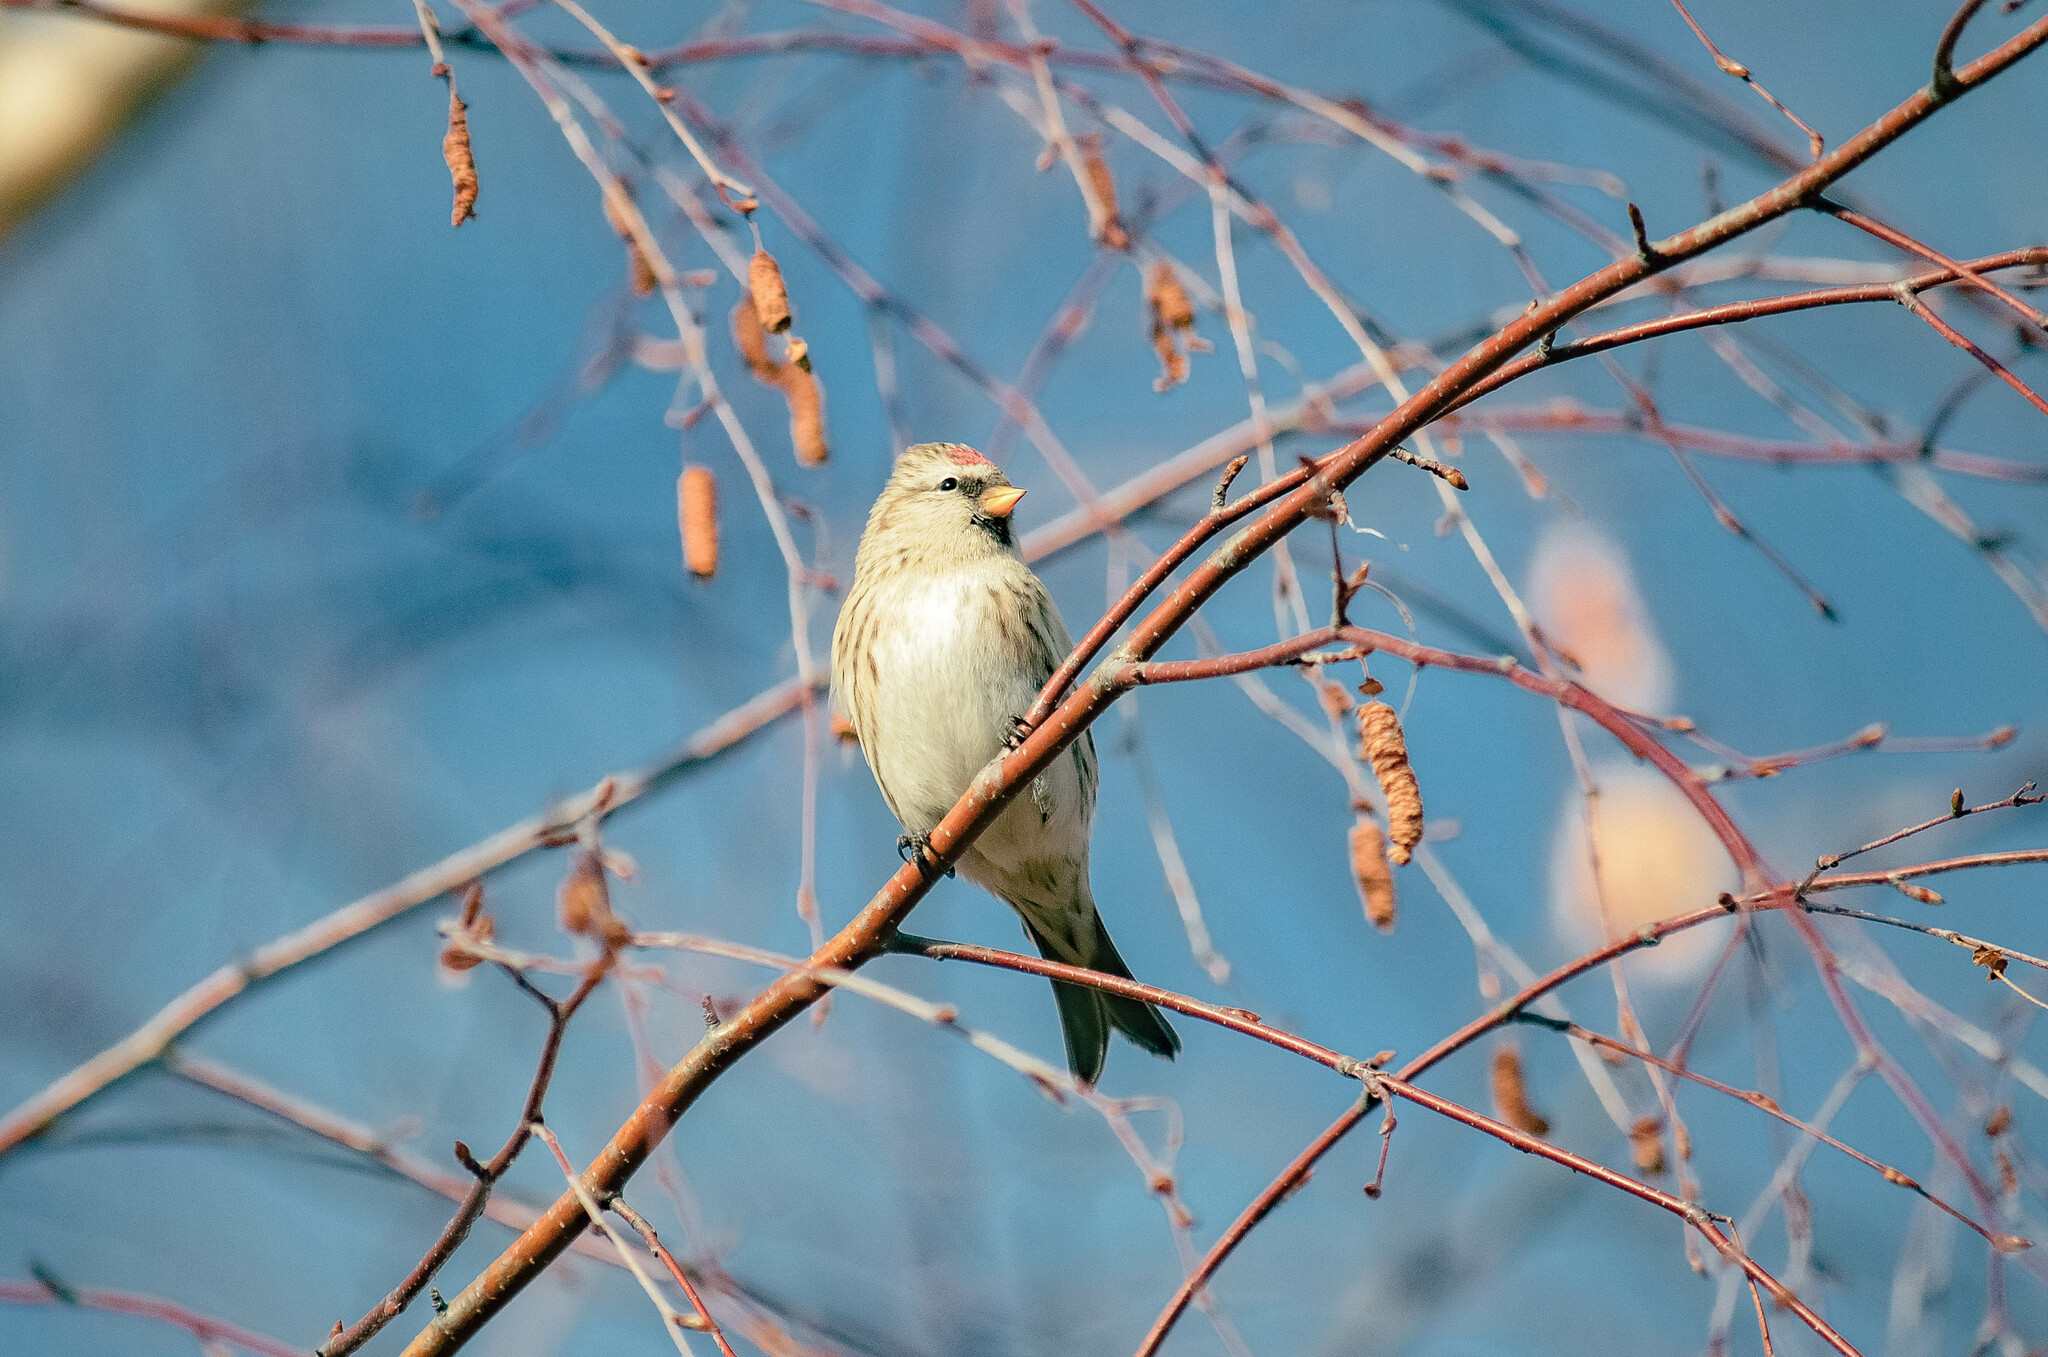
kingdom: Animalia
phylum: Chordata
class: Aves
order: Passeriformes
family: Fringillidae
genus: Acanthis
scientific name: Acanthis flammea
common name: Common redpoll
